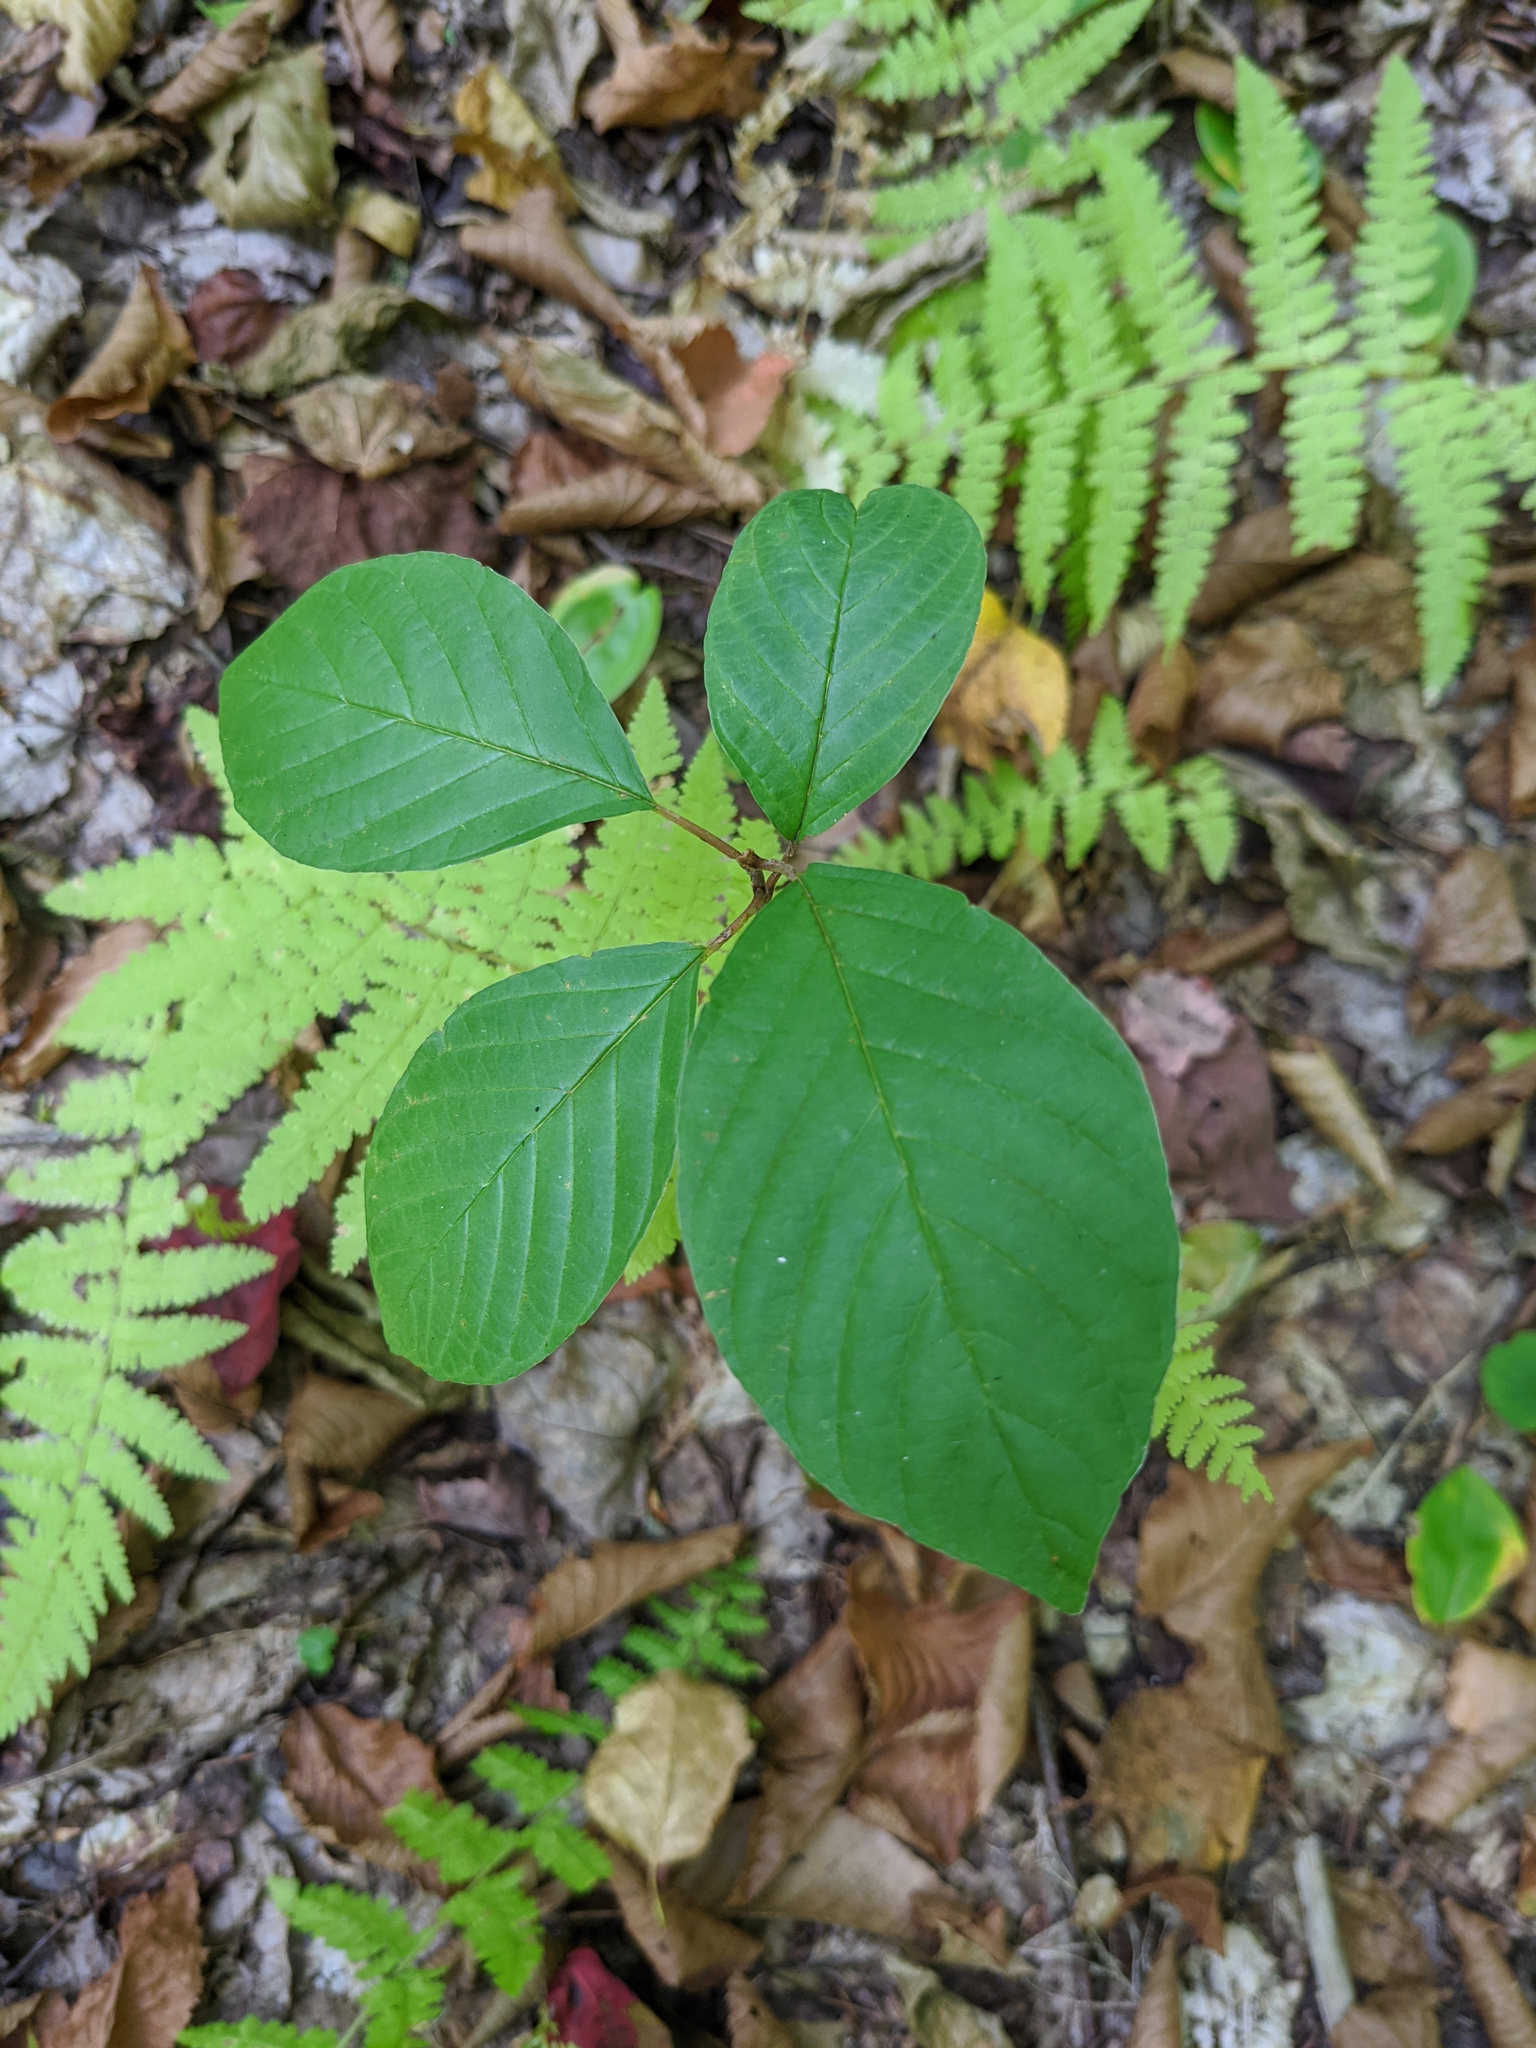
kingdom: Plantae
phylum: Tracheophyta
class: Magnoliopsida
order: Rosales
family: Rhamnaceae
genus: Frangula
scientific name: Frangula alnus
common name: Alder buckthorn
